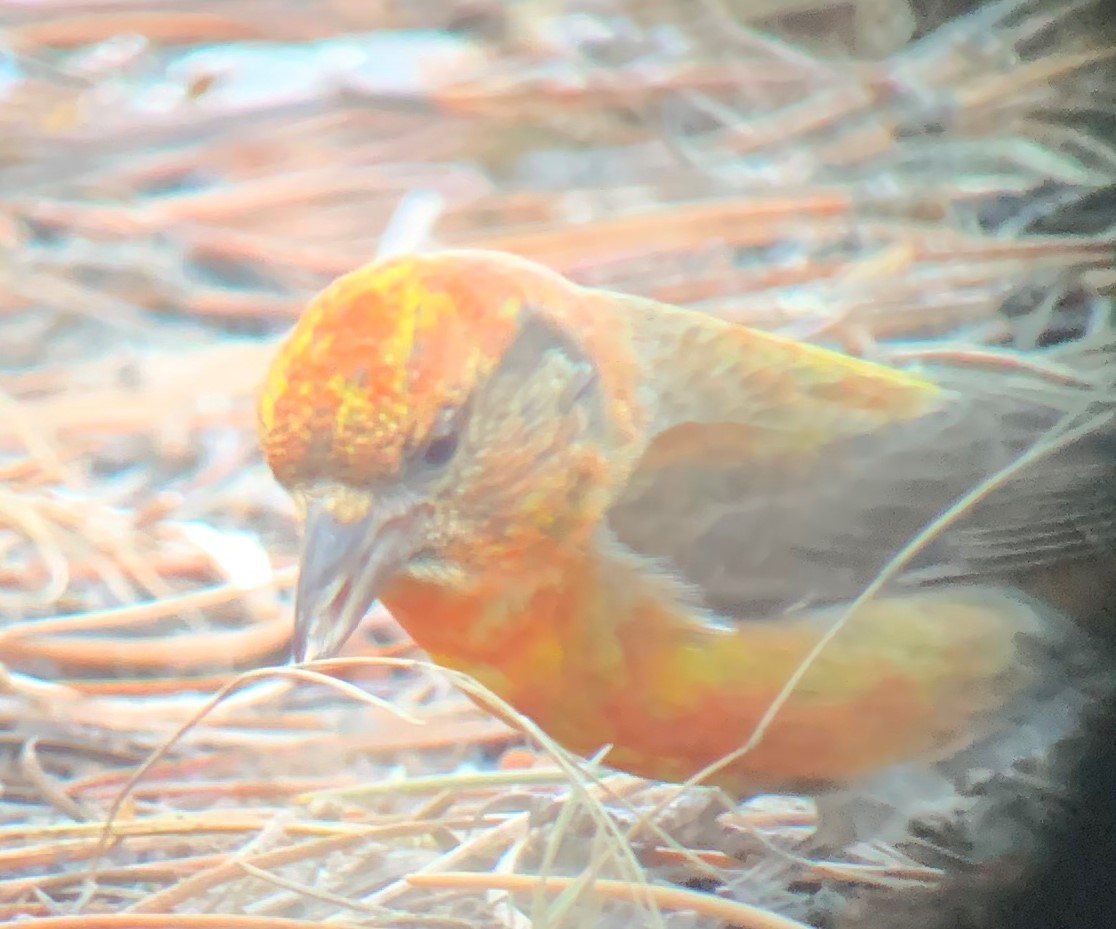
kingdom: Animalia
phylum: Chordata
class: Aves
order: Passeriformes
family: Fringillidae
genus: Loxia
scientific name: Loxia curvirostra
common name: Red crossbill
